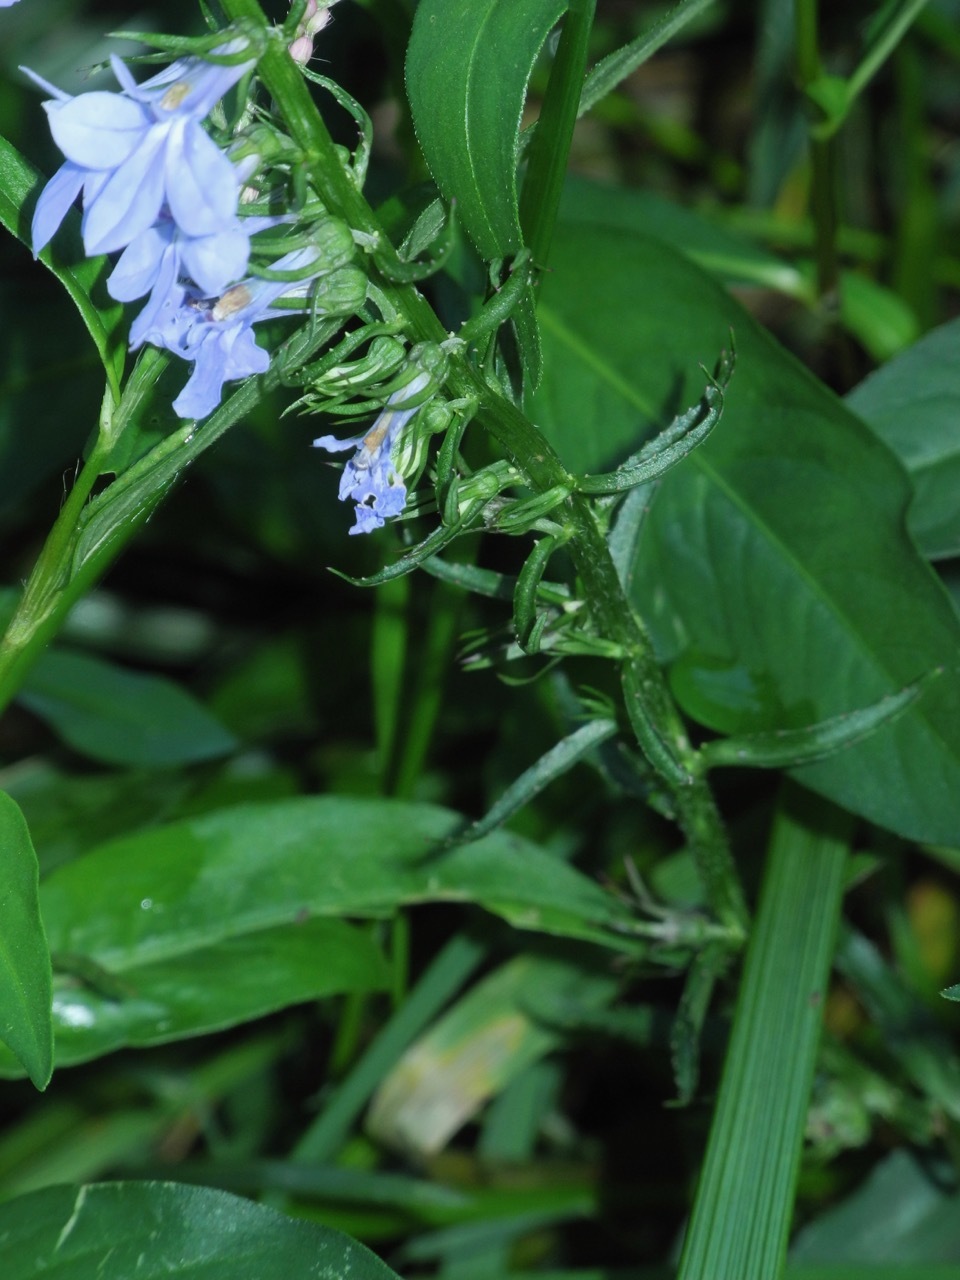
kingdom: Plantae
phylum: Tracheophyta
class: Magnoliopsida
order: Asterales
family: Campanulaceae
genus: Lobelia
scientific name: Lobelia amoena
